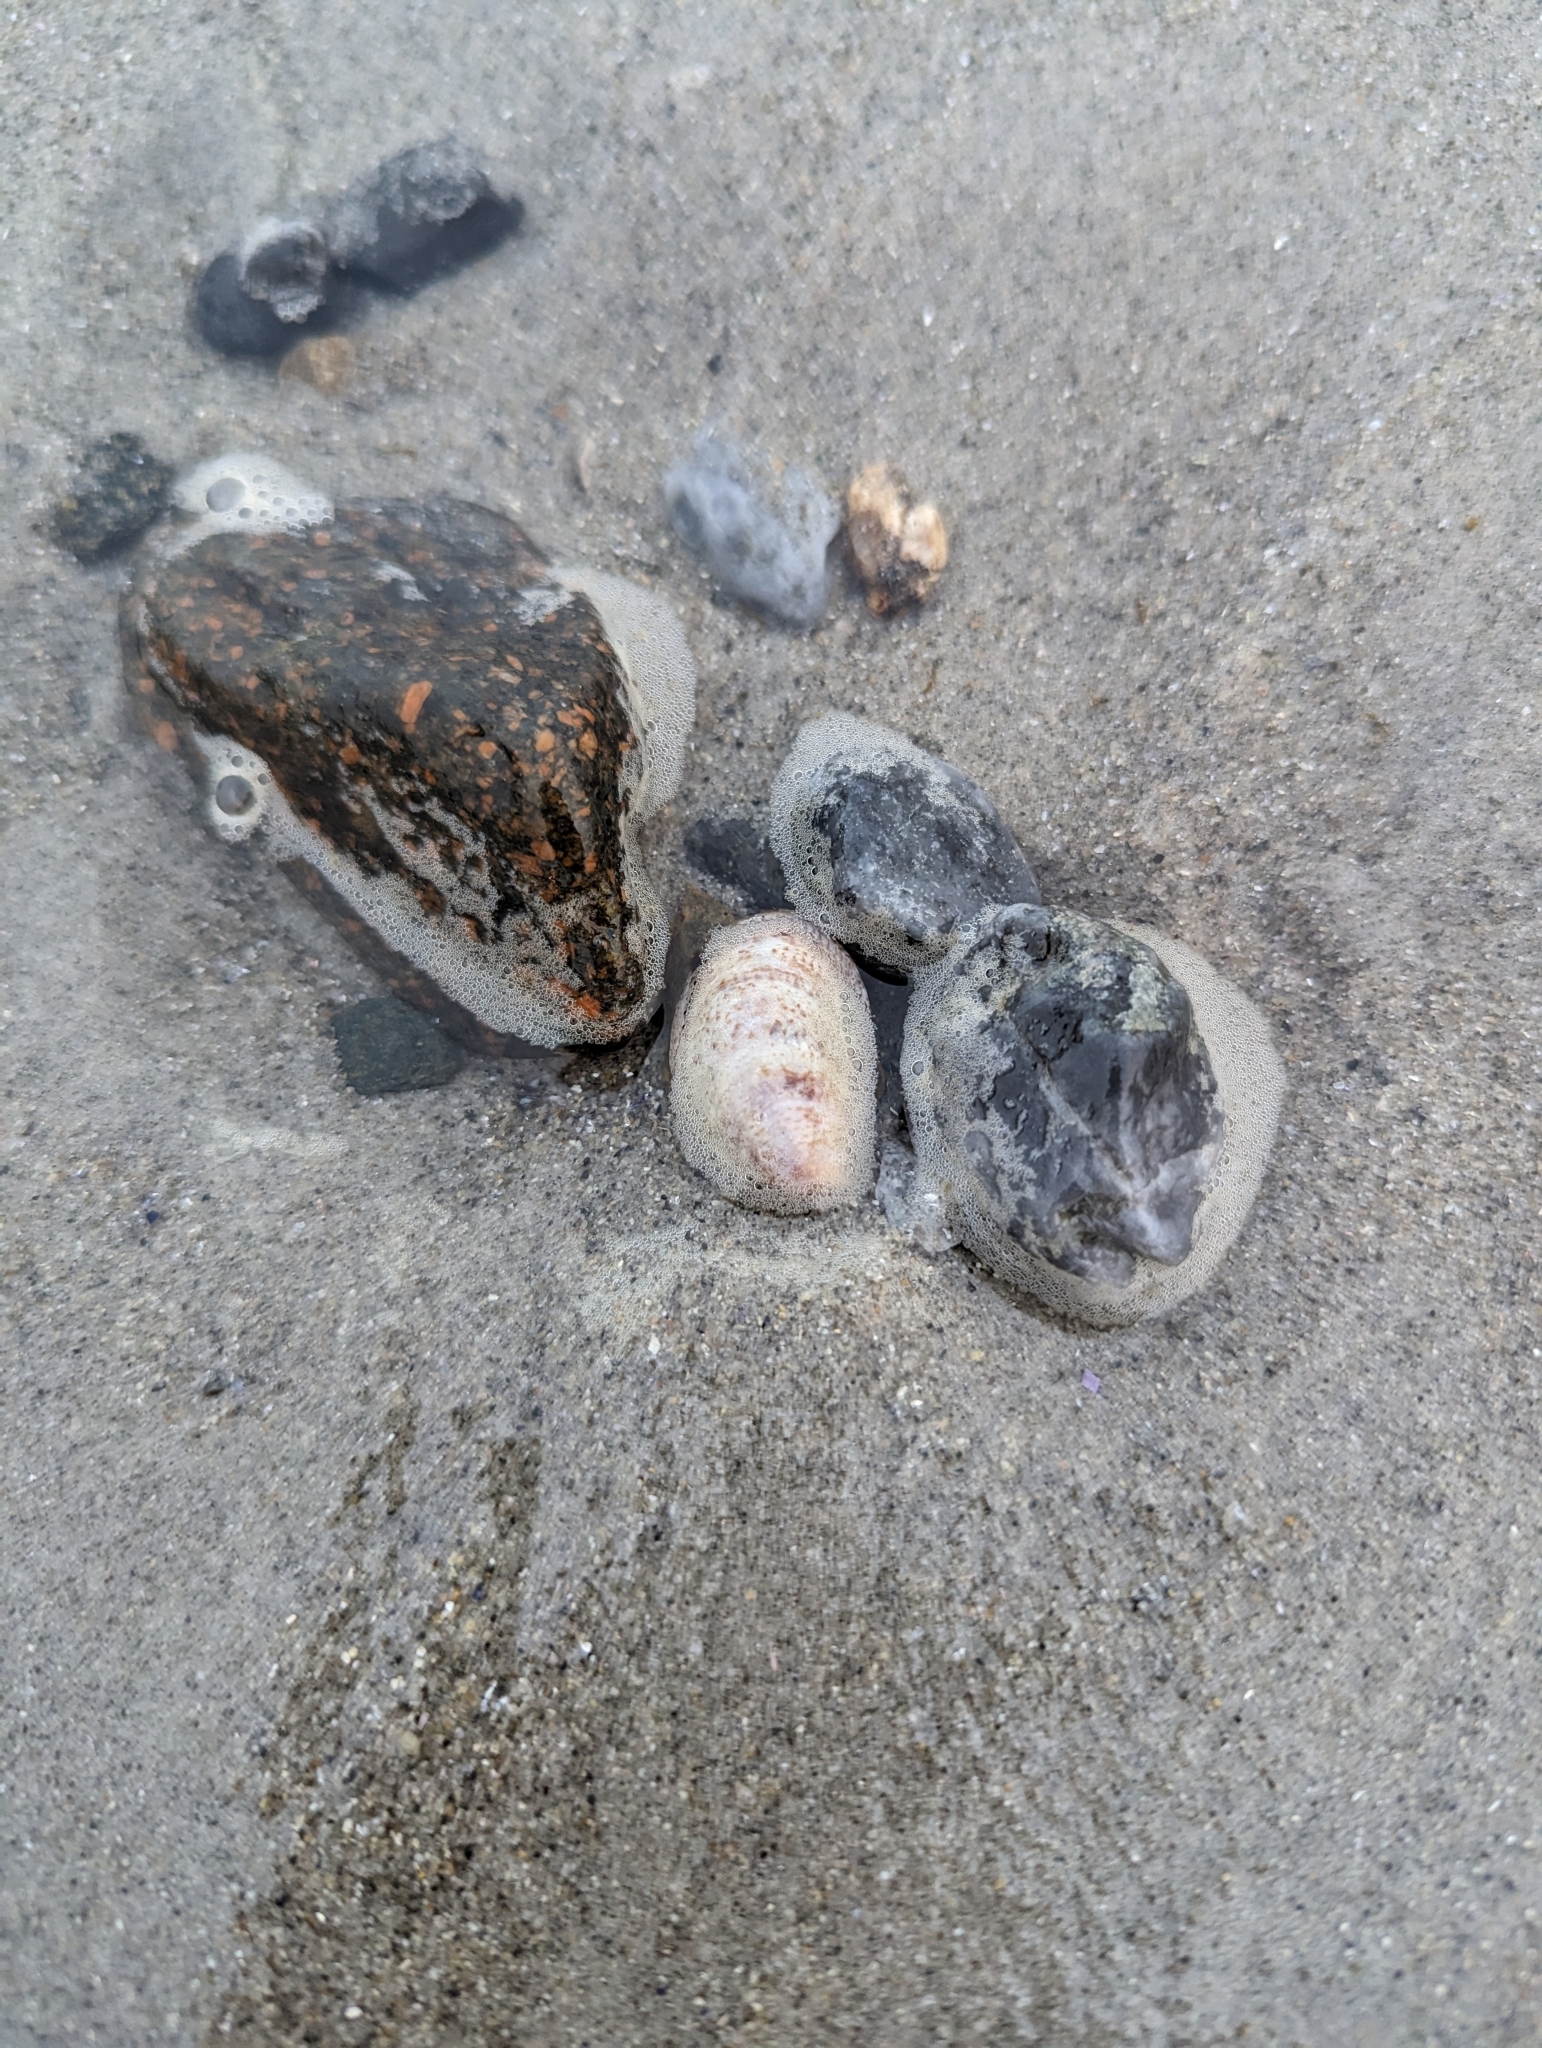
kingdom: Animalia
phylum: Mollusca
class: Gastropoda
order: Littorinimorpha
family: Calyptraeidae
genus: Crepidula
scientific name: Crepidula fornicata
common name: Slipper limpet
